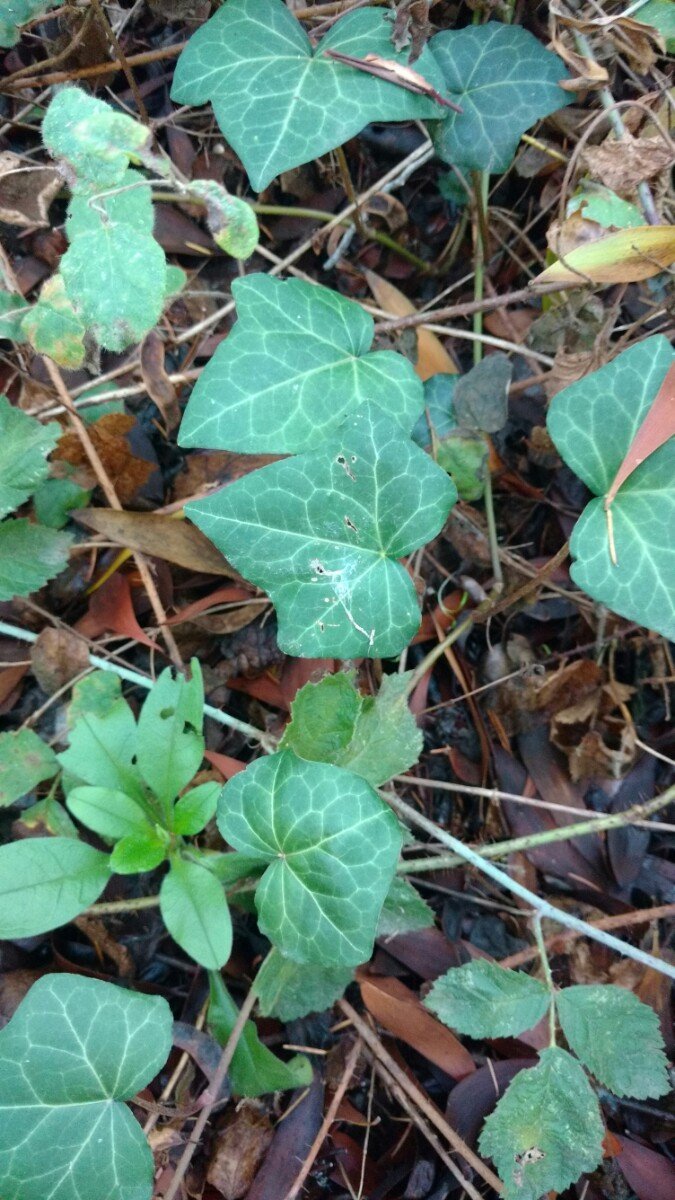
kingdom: Plantae
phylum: Tracheophyta
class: Magnoliopsida
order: Apiales
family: Araliaceae
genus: Hedera
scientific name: Hedera helix
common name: Ivy
